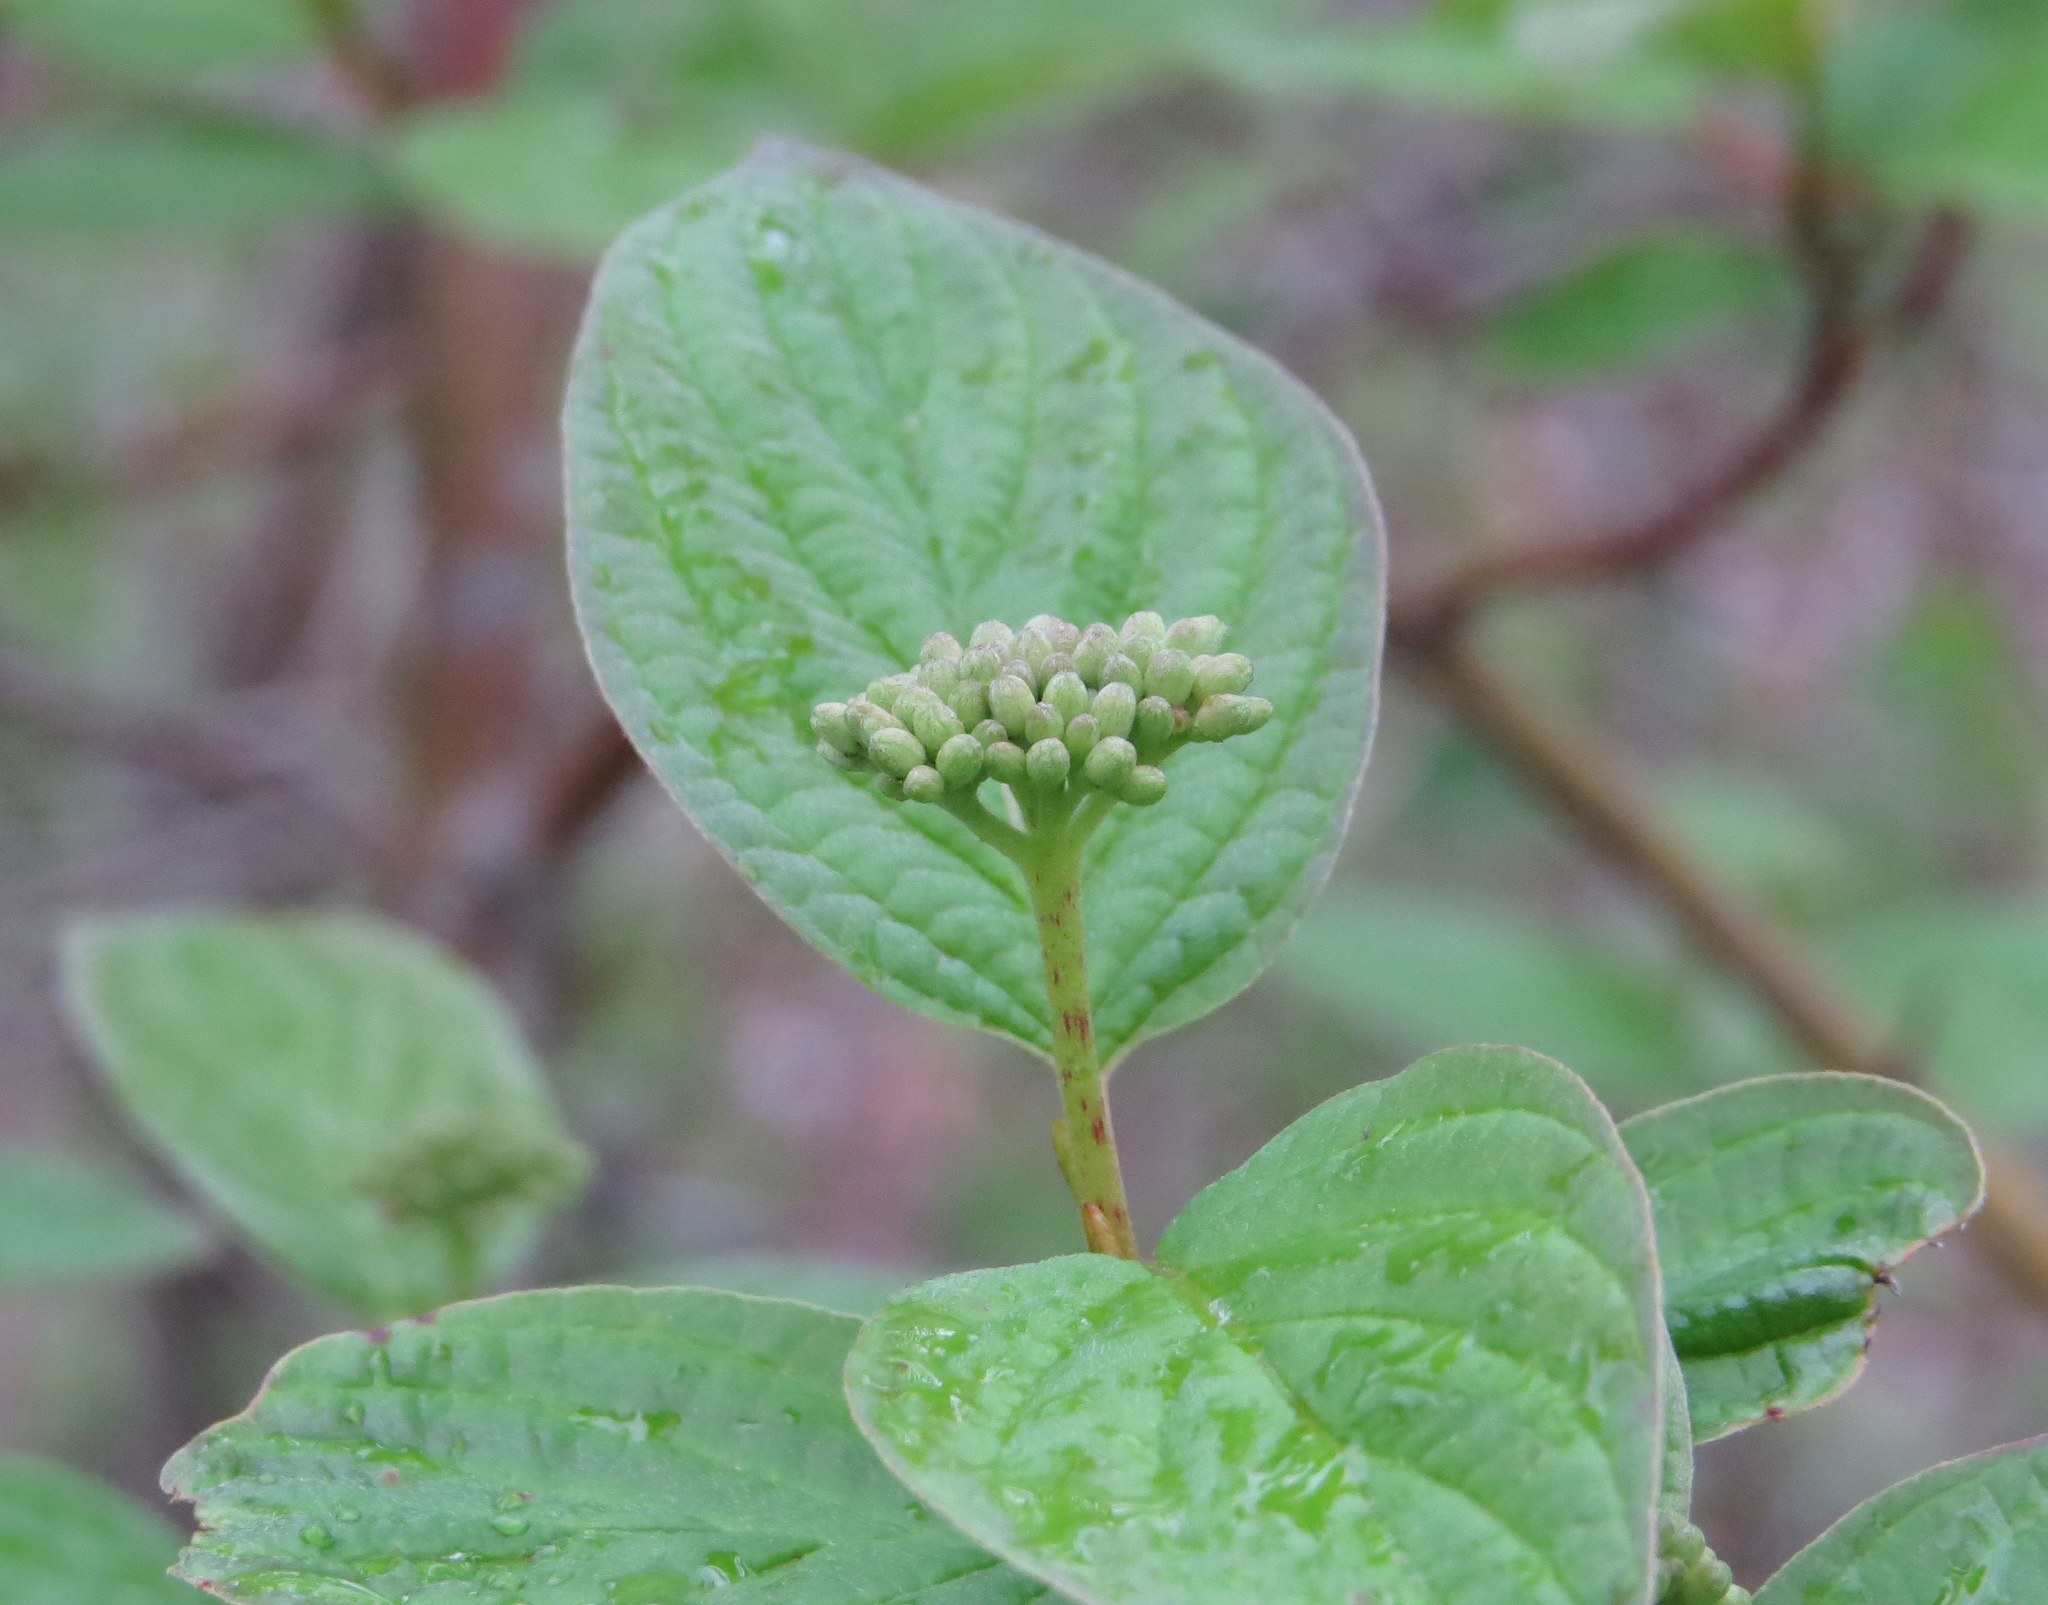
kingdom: Plantae
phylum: Tracheophyta
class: Magnoliopsida
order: Cornales
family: Cornaceae
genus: Cornus
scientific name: Cornus alternifolia
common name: Pagoda dogwood
